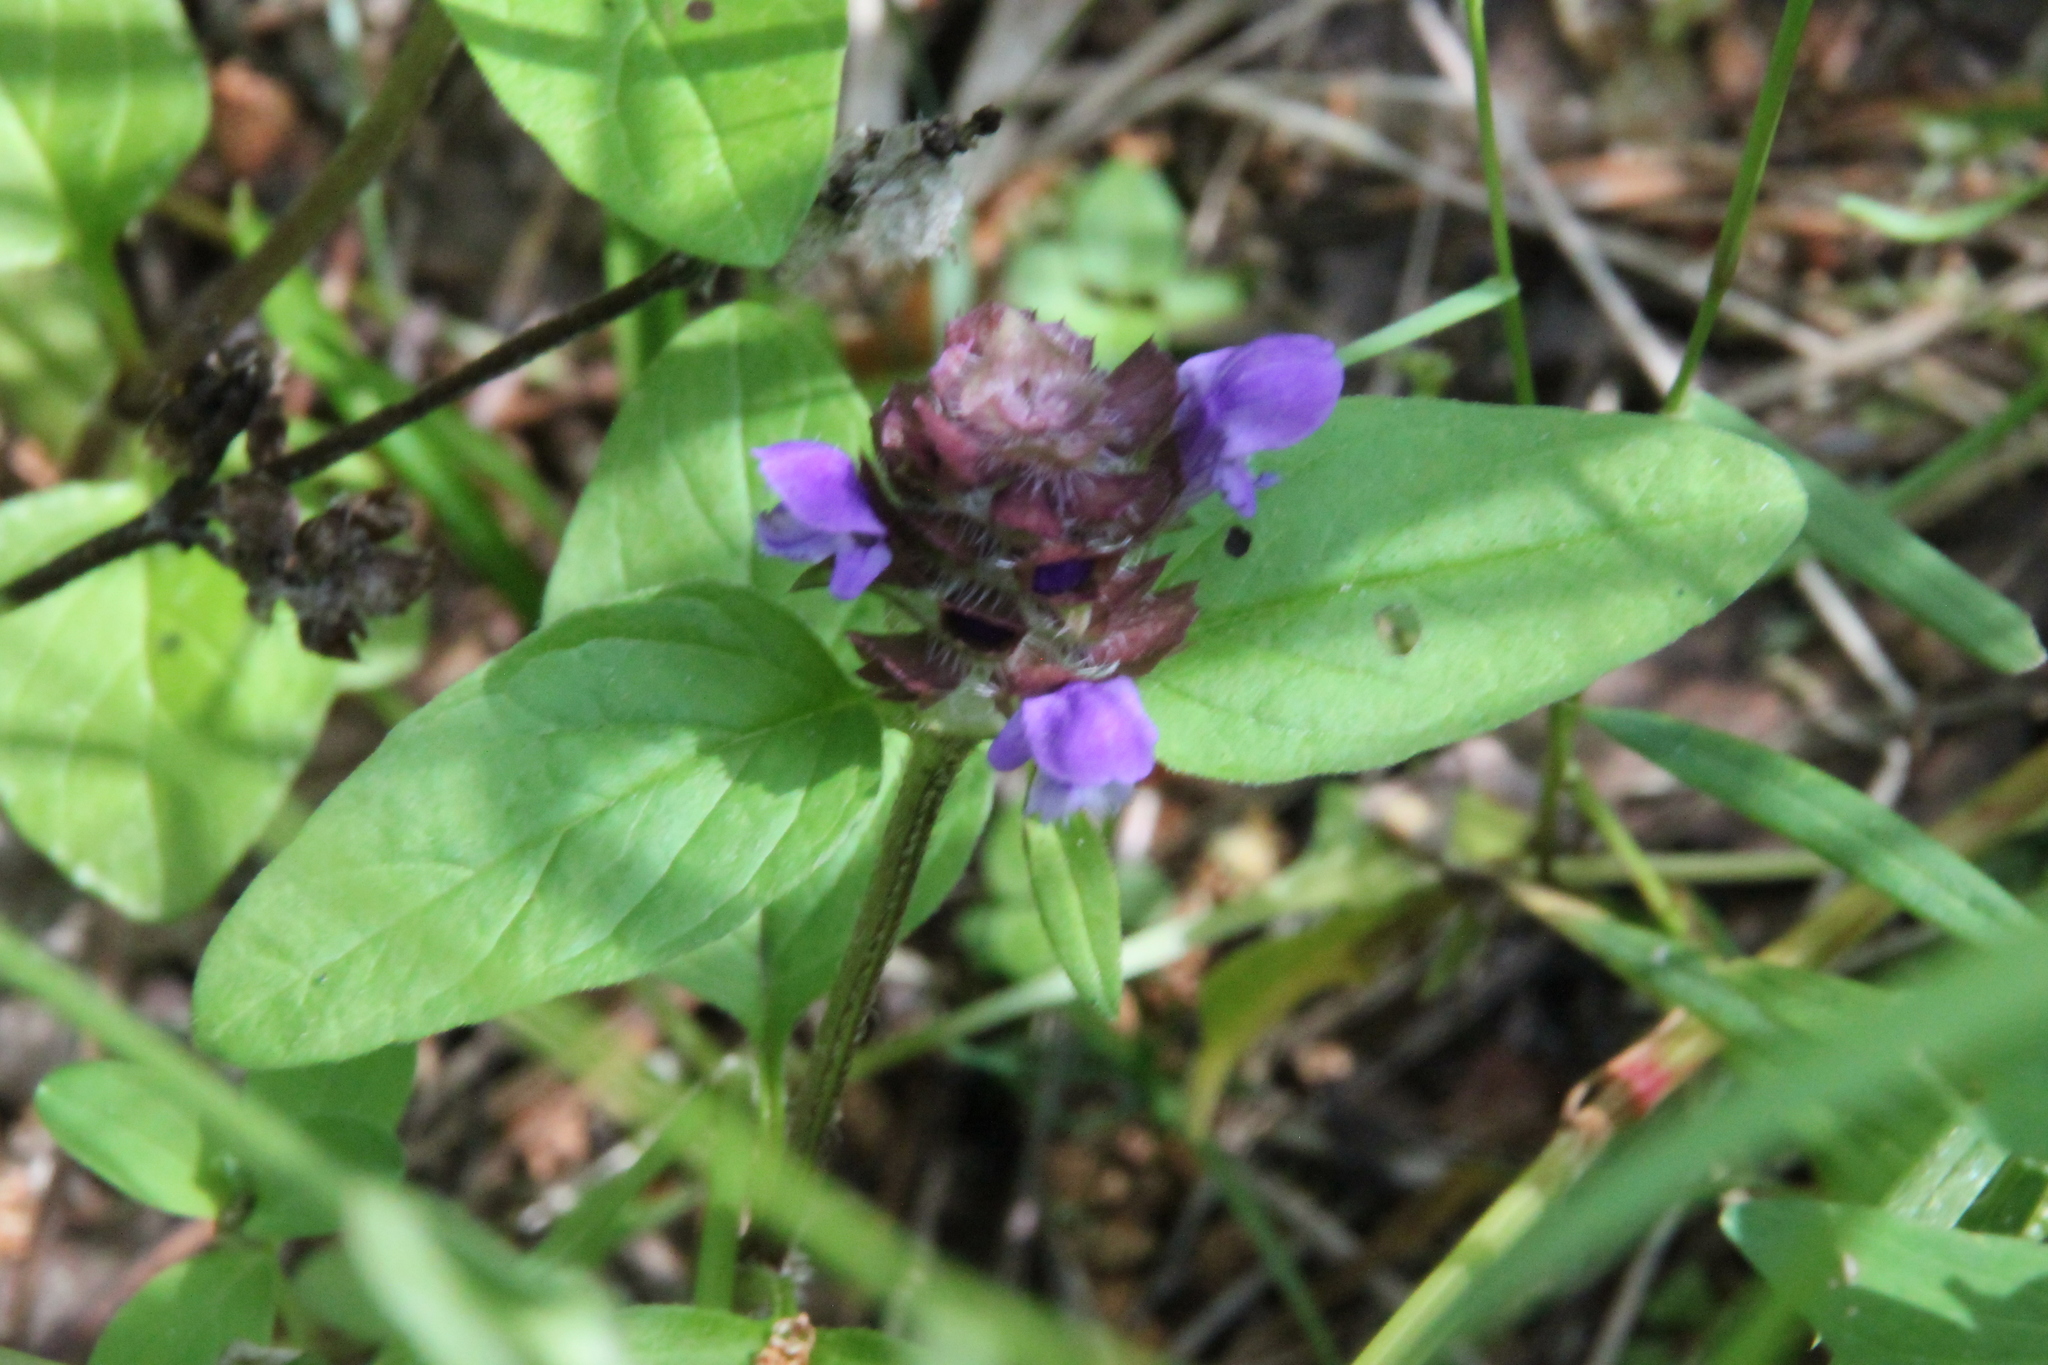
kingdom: Plantae
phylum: Tracheophyta
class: Magnoliopsida
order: Lamiales
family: Lamiaceae
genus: Prunella
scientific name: Prunella vulgaris
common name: Heal-all
